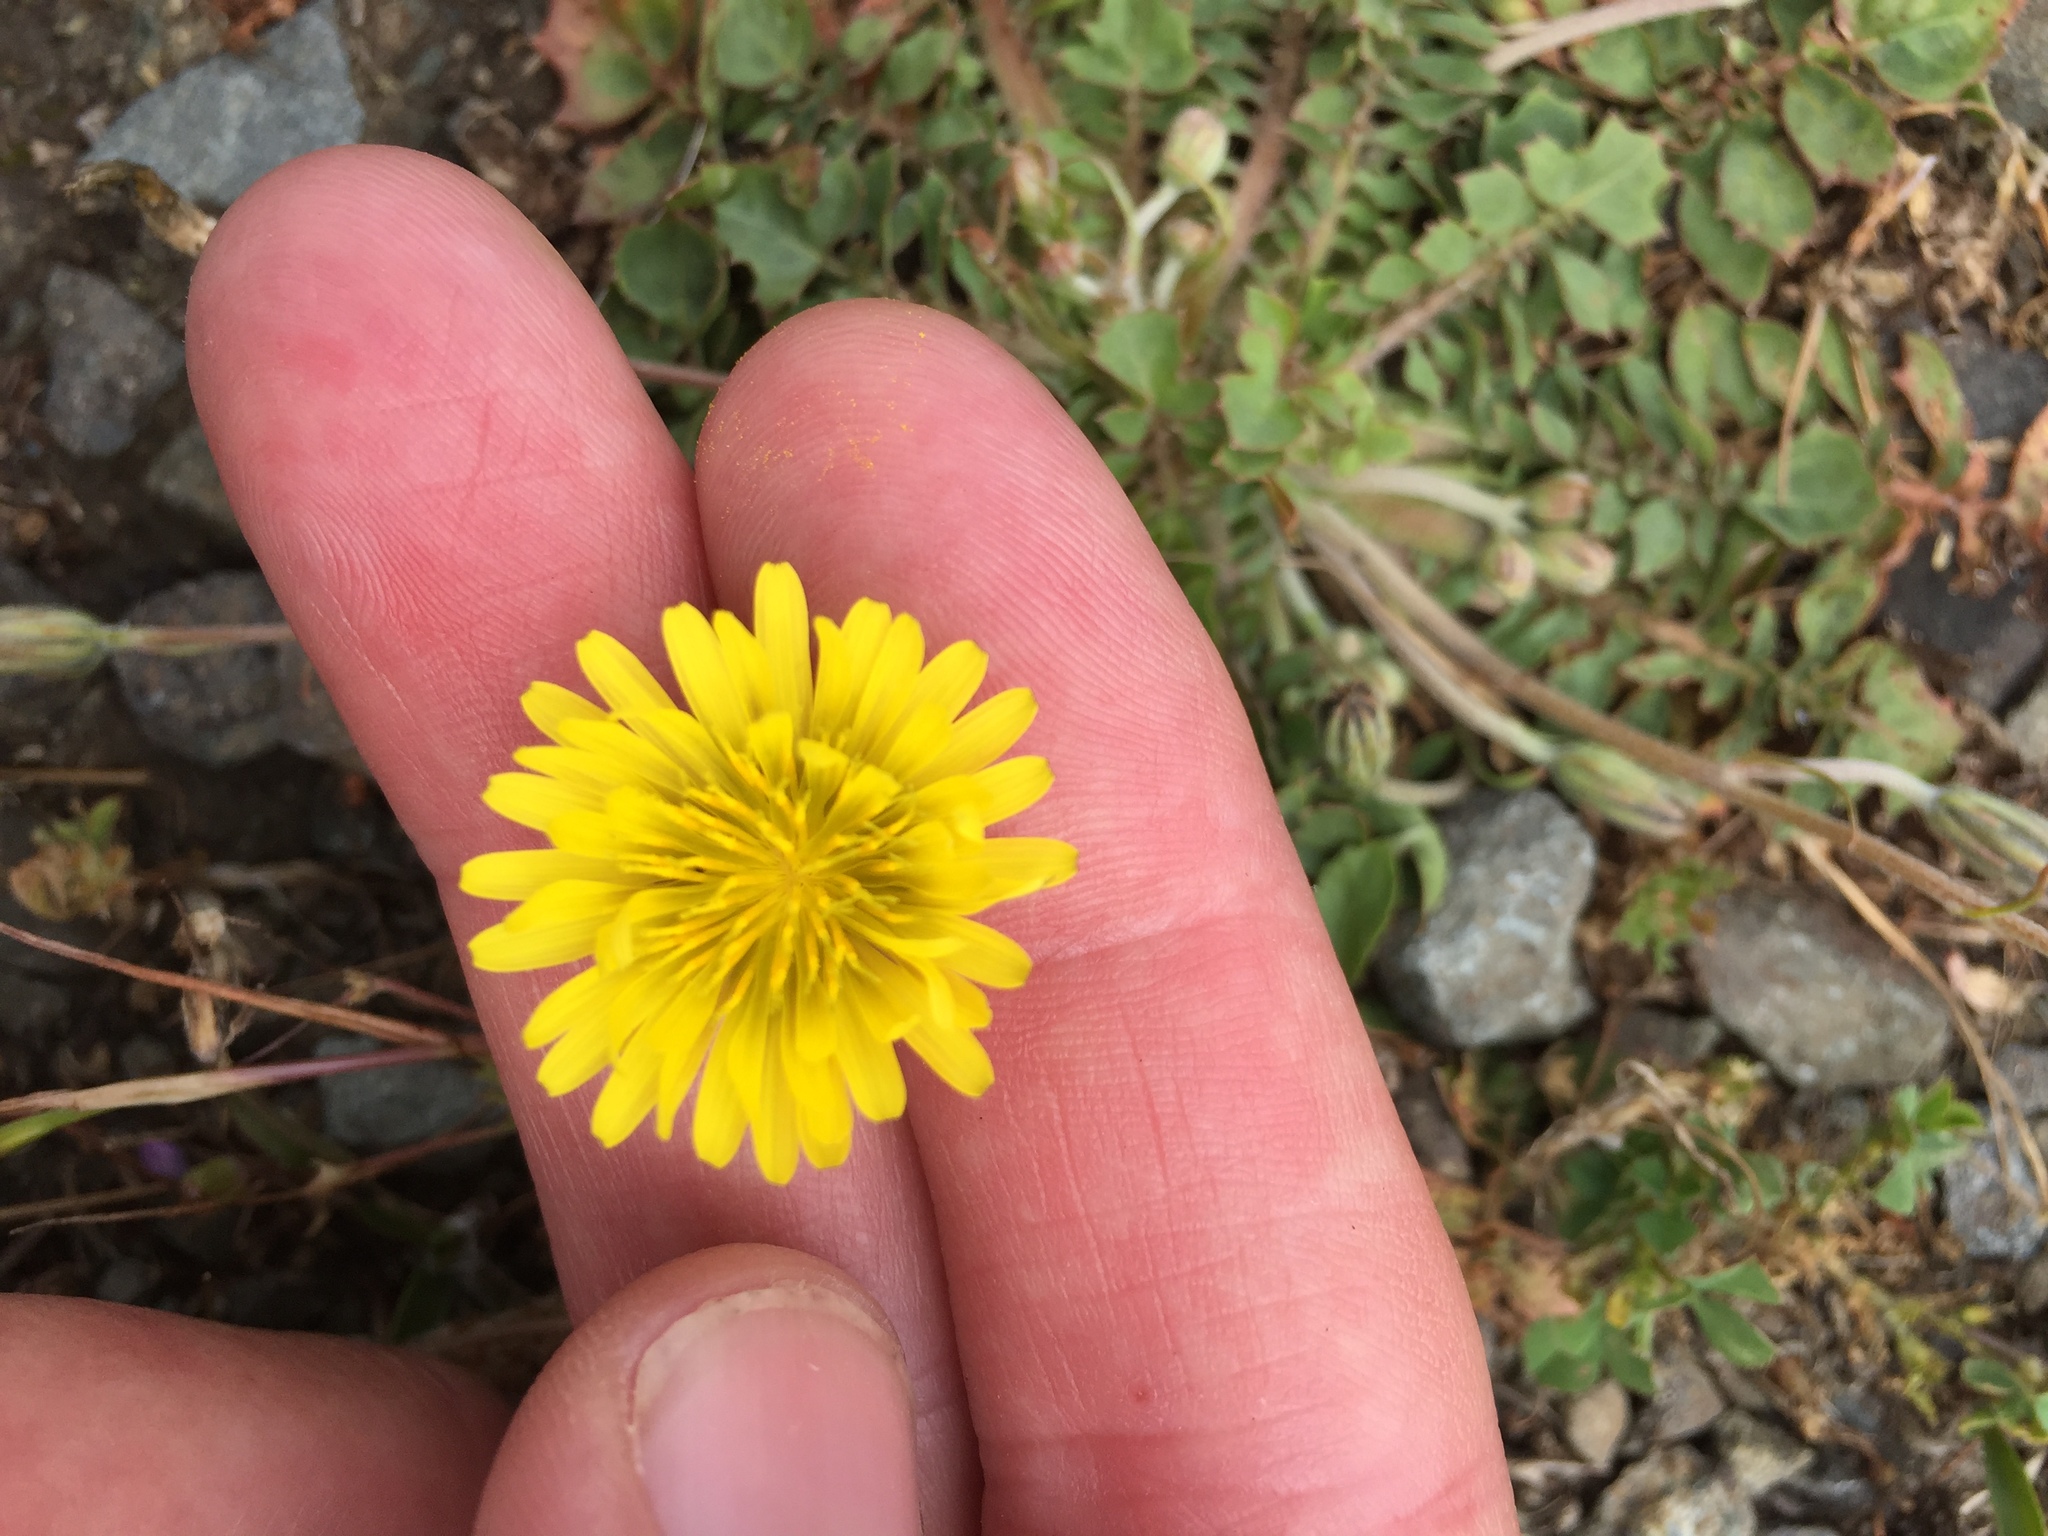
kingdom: Plantae
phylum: Tracheophyta
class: Magnoliopsida
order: Asterales
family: Asteraceae
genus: Crepis
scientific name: Crepis bursifolia
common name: Italian hawksbeard
